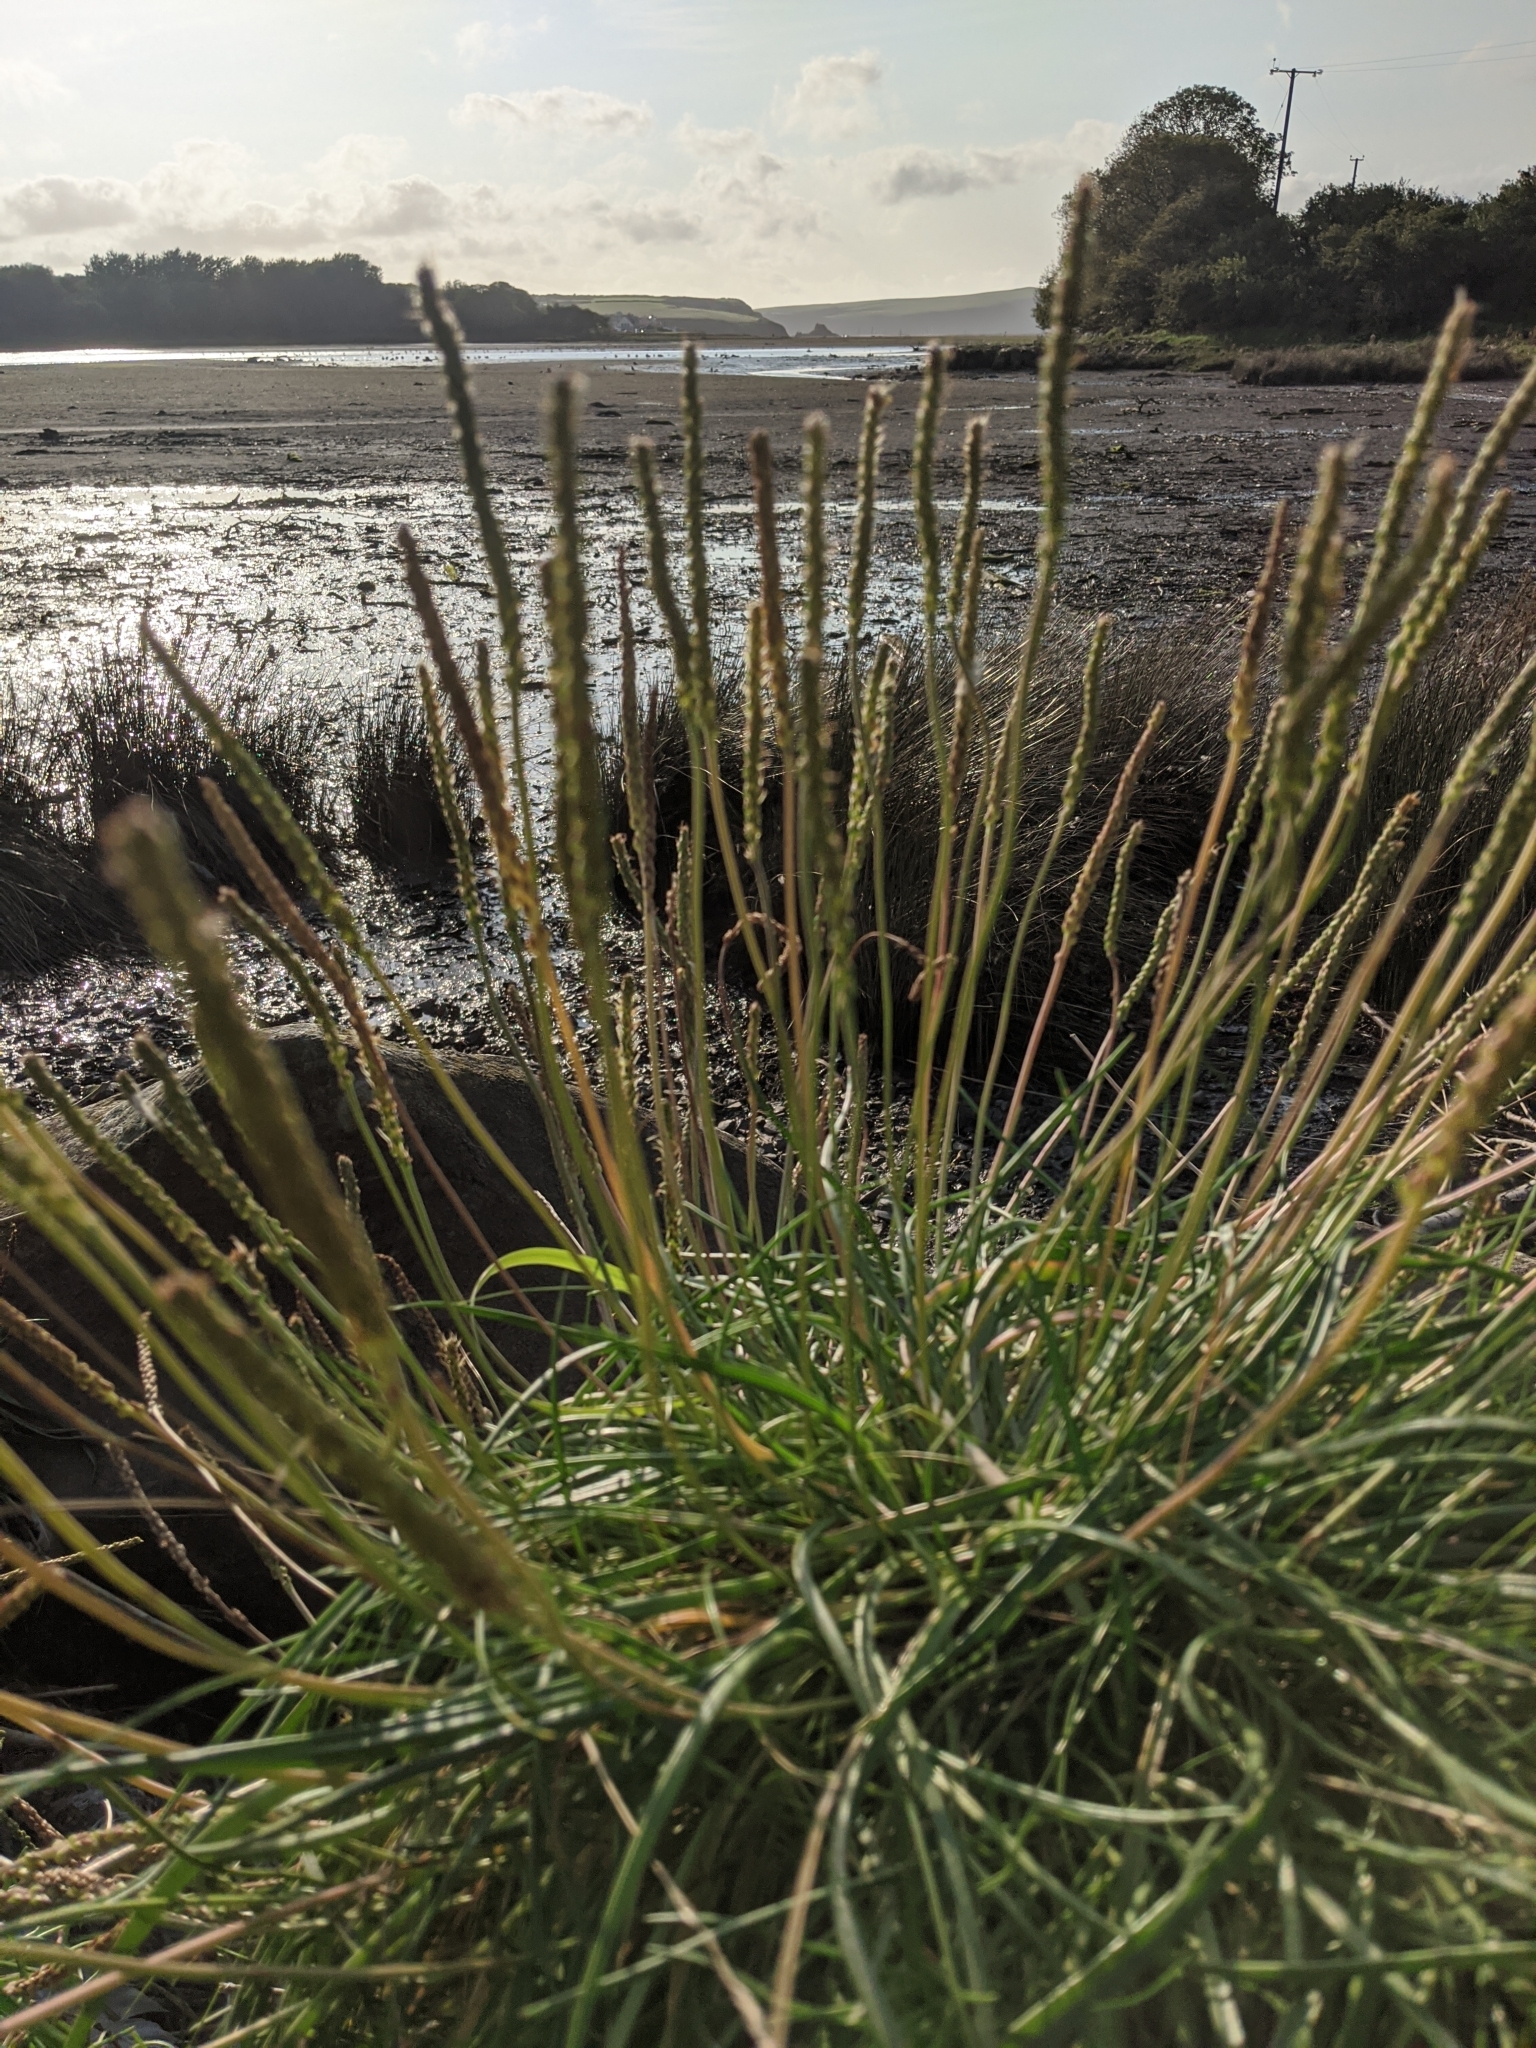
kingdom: Plantae
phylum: Tracheophyta
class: Magnoliopsida
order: Lamiales
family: Plantaginaceae
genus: Plantago
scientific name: Plantago maritima
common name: Sea plantain
